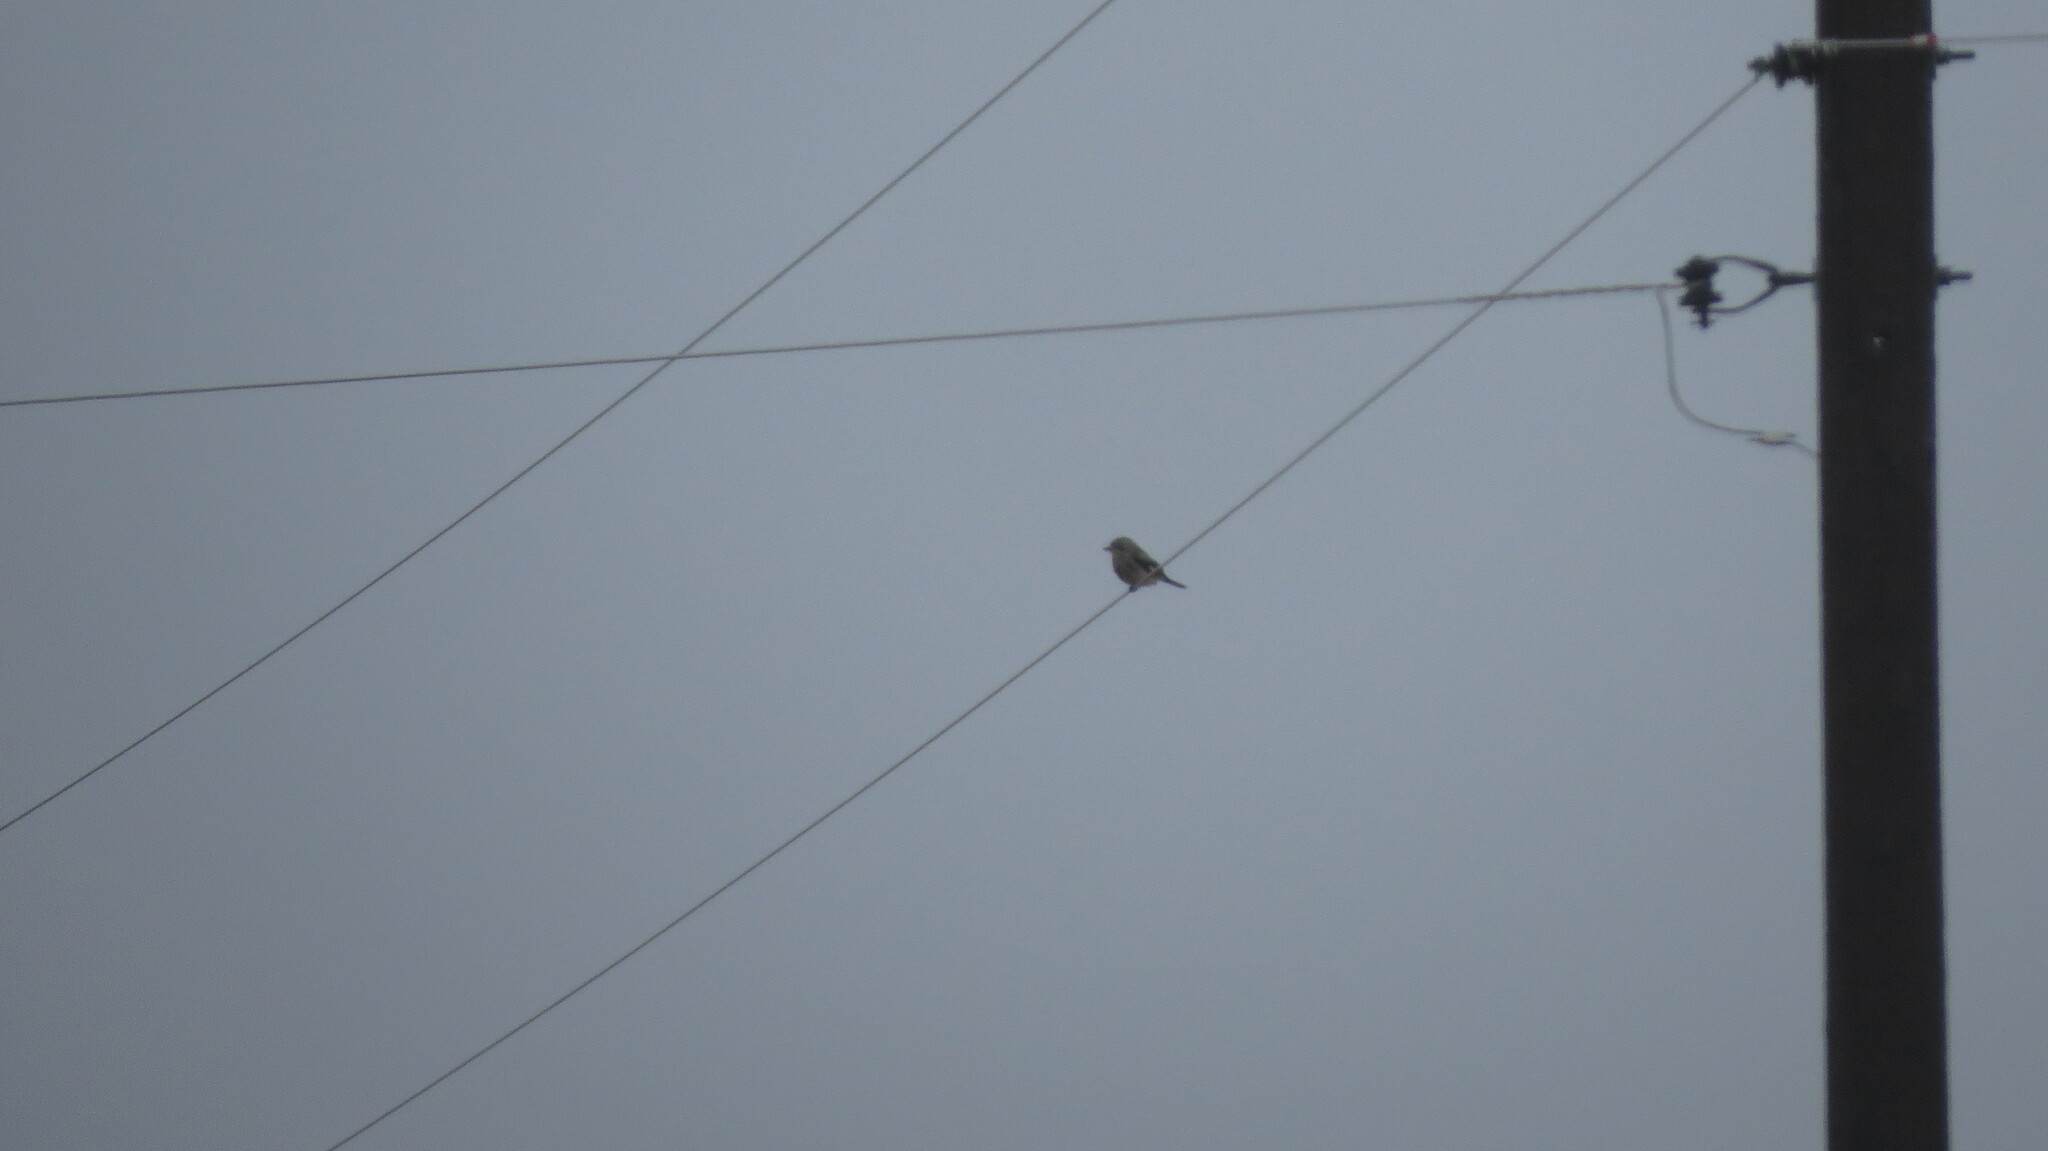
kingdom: Animalia
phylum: Chordata
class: Aves
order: Passeriformes
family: Laniidae
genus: Lanius
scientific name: Lanius borealis
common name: Northern shrike
